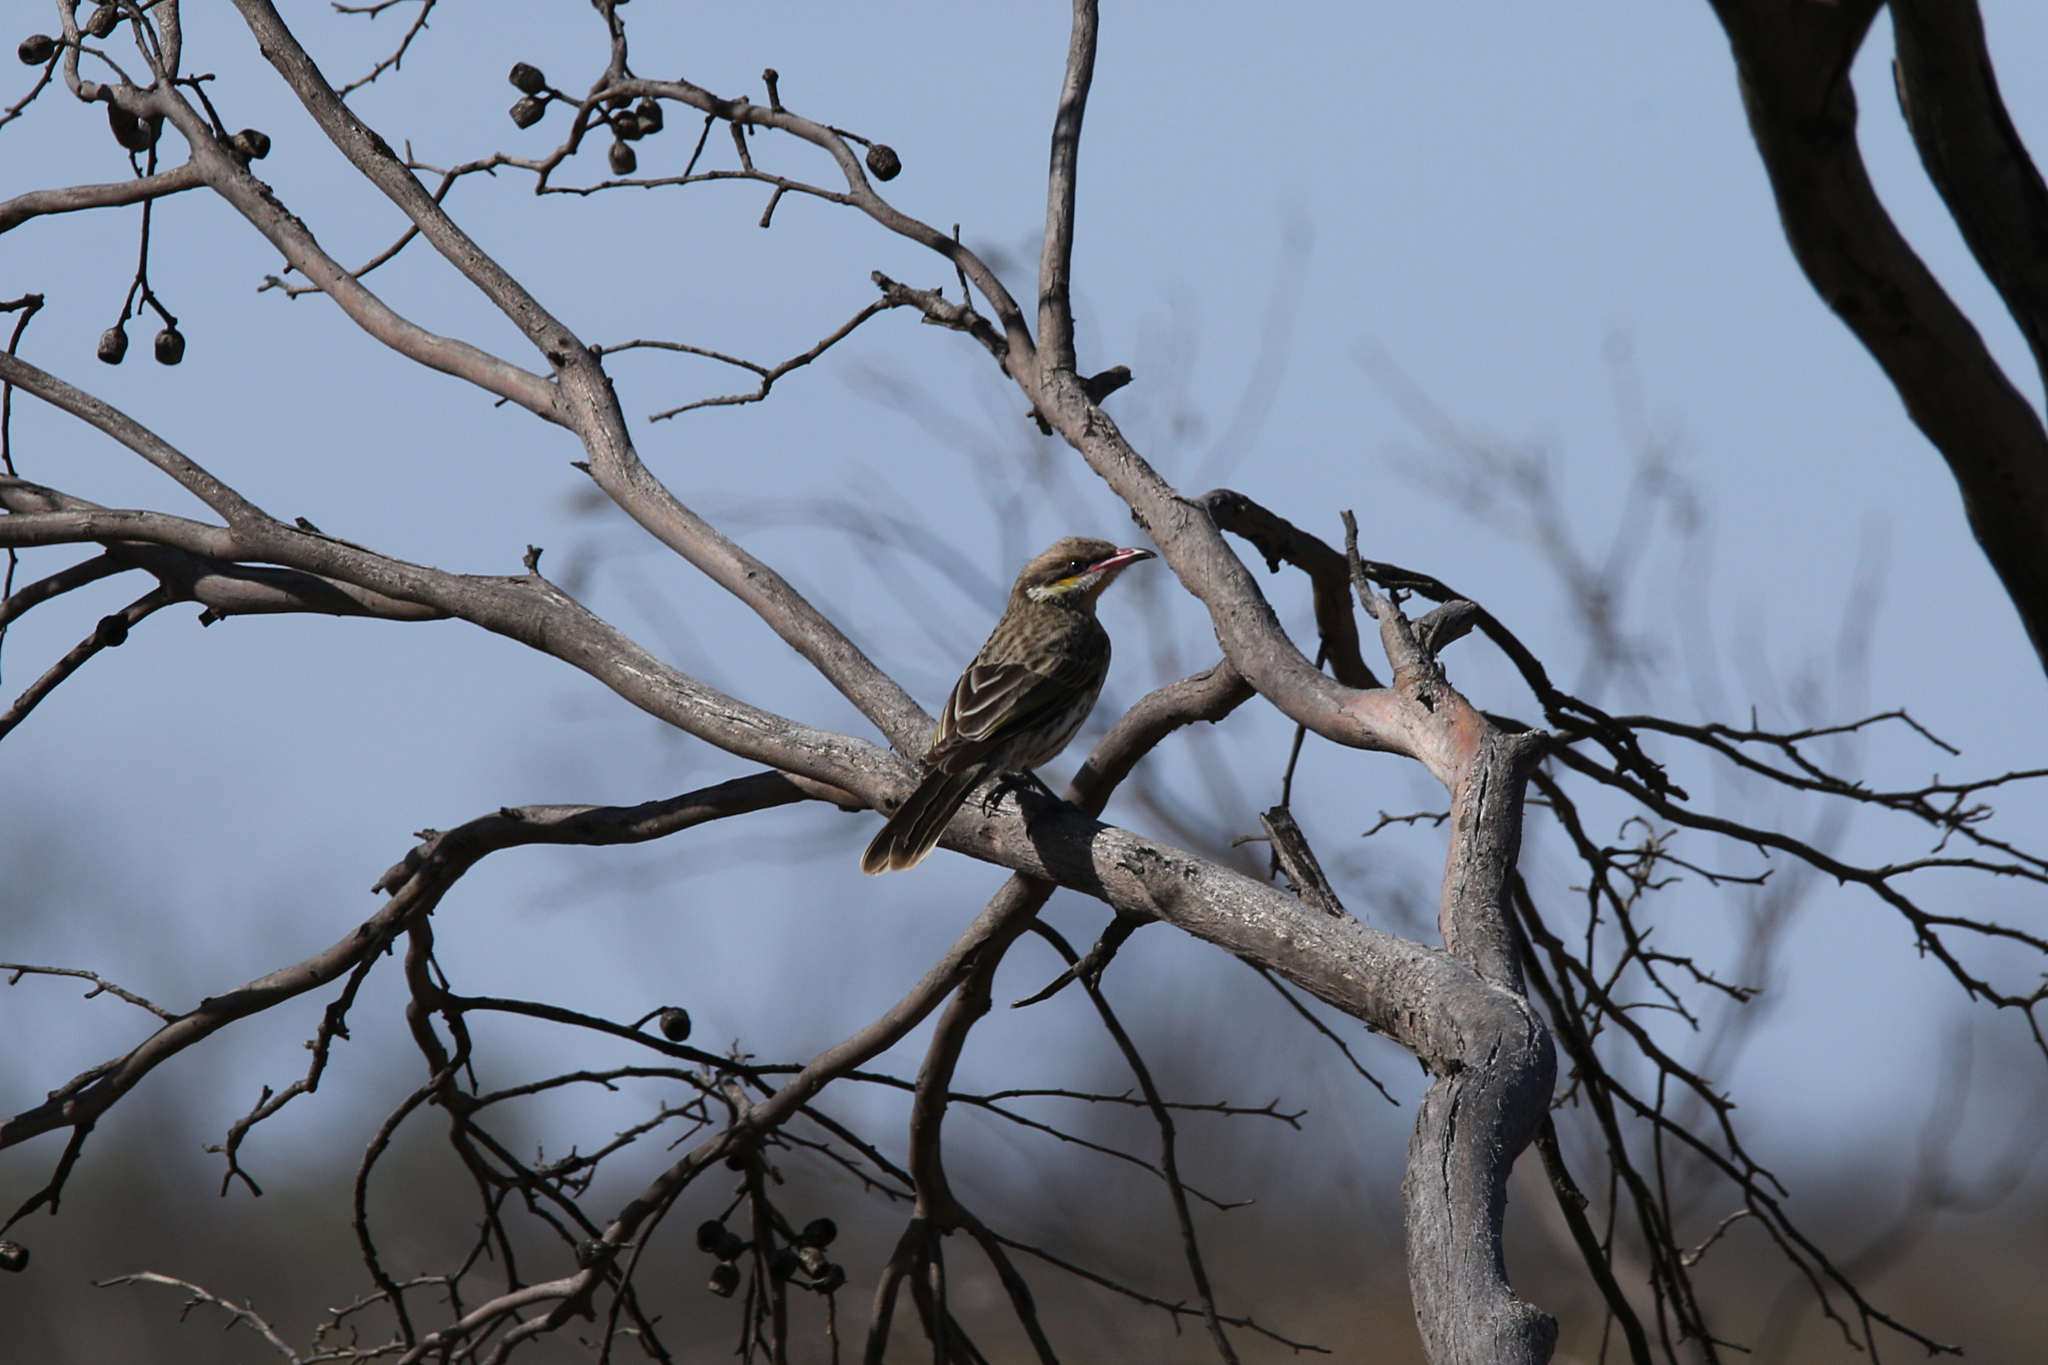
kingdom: Animalia
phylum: Chordata
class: Aves
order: Passeriformes
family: Meliphagidae
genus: Acanthagenys
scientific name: Acanthagenys rufogularis
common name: Spiny-cheeked honeyeater
